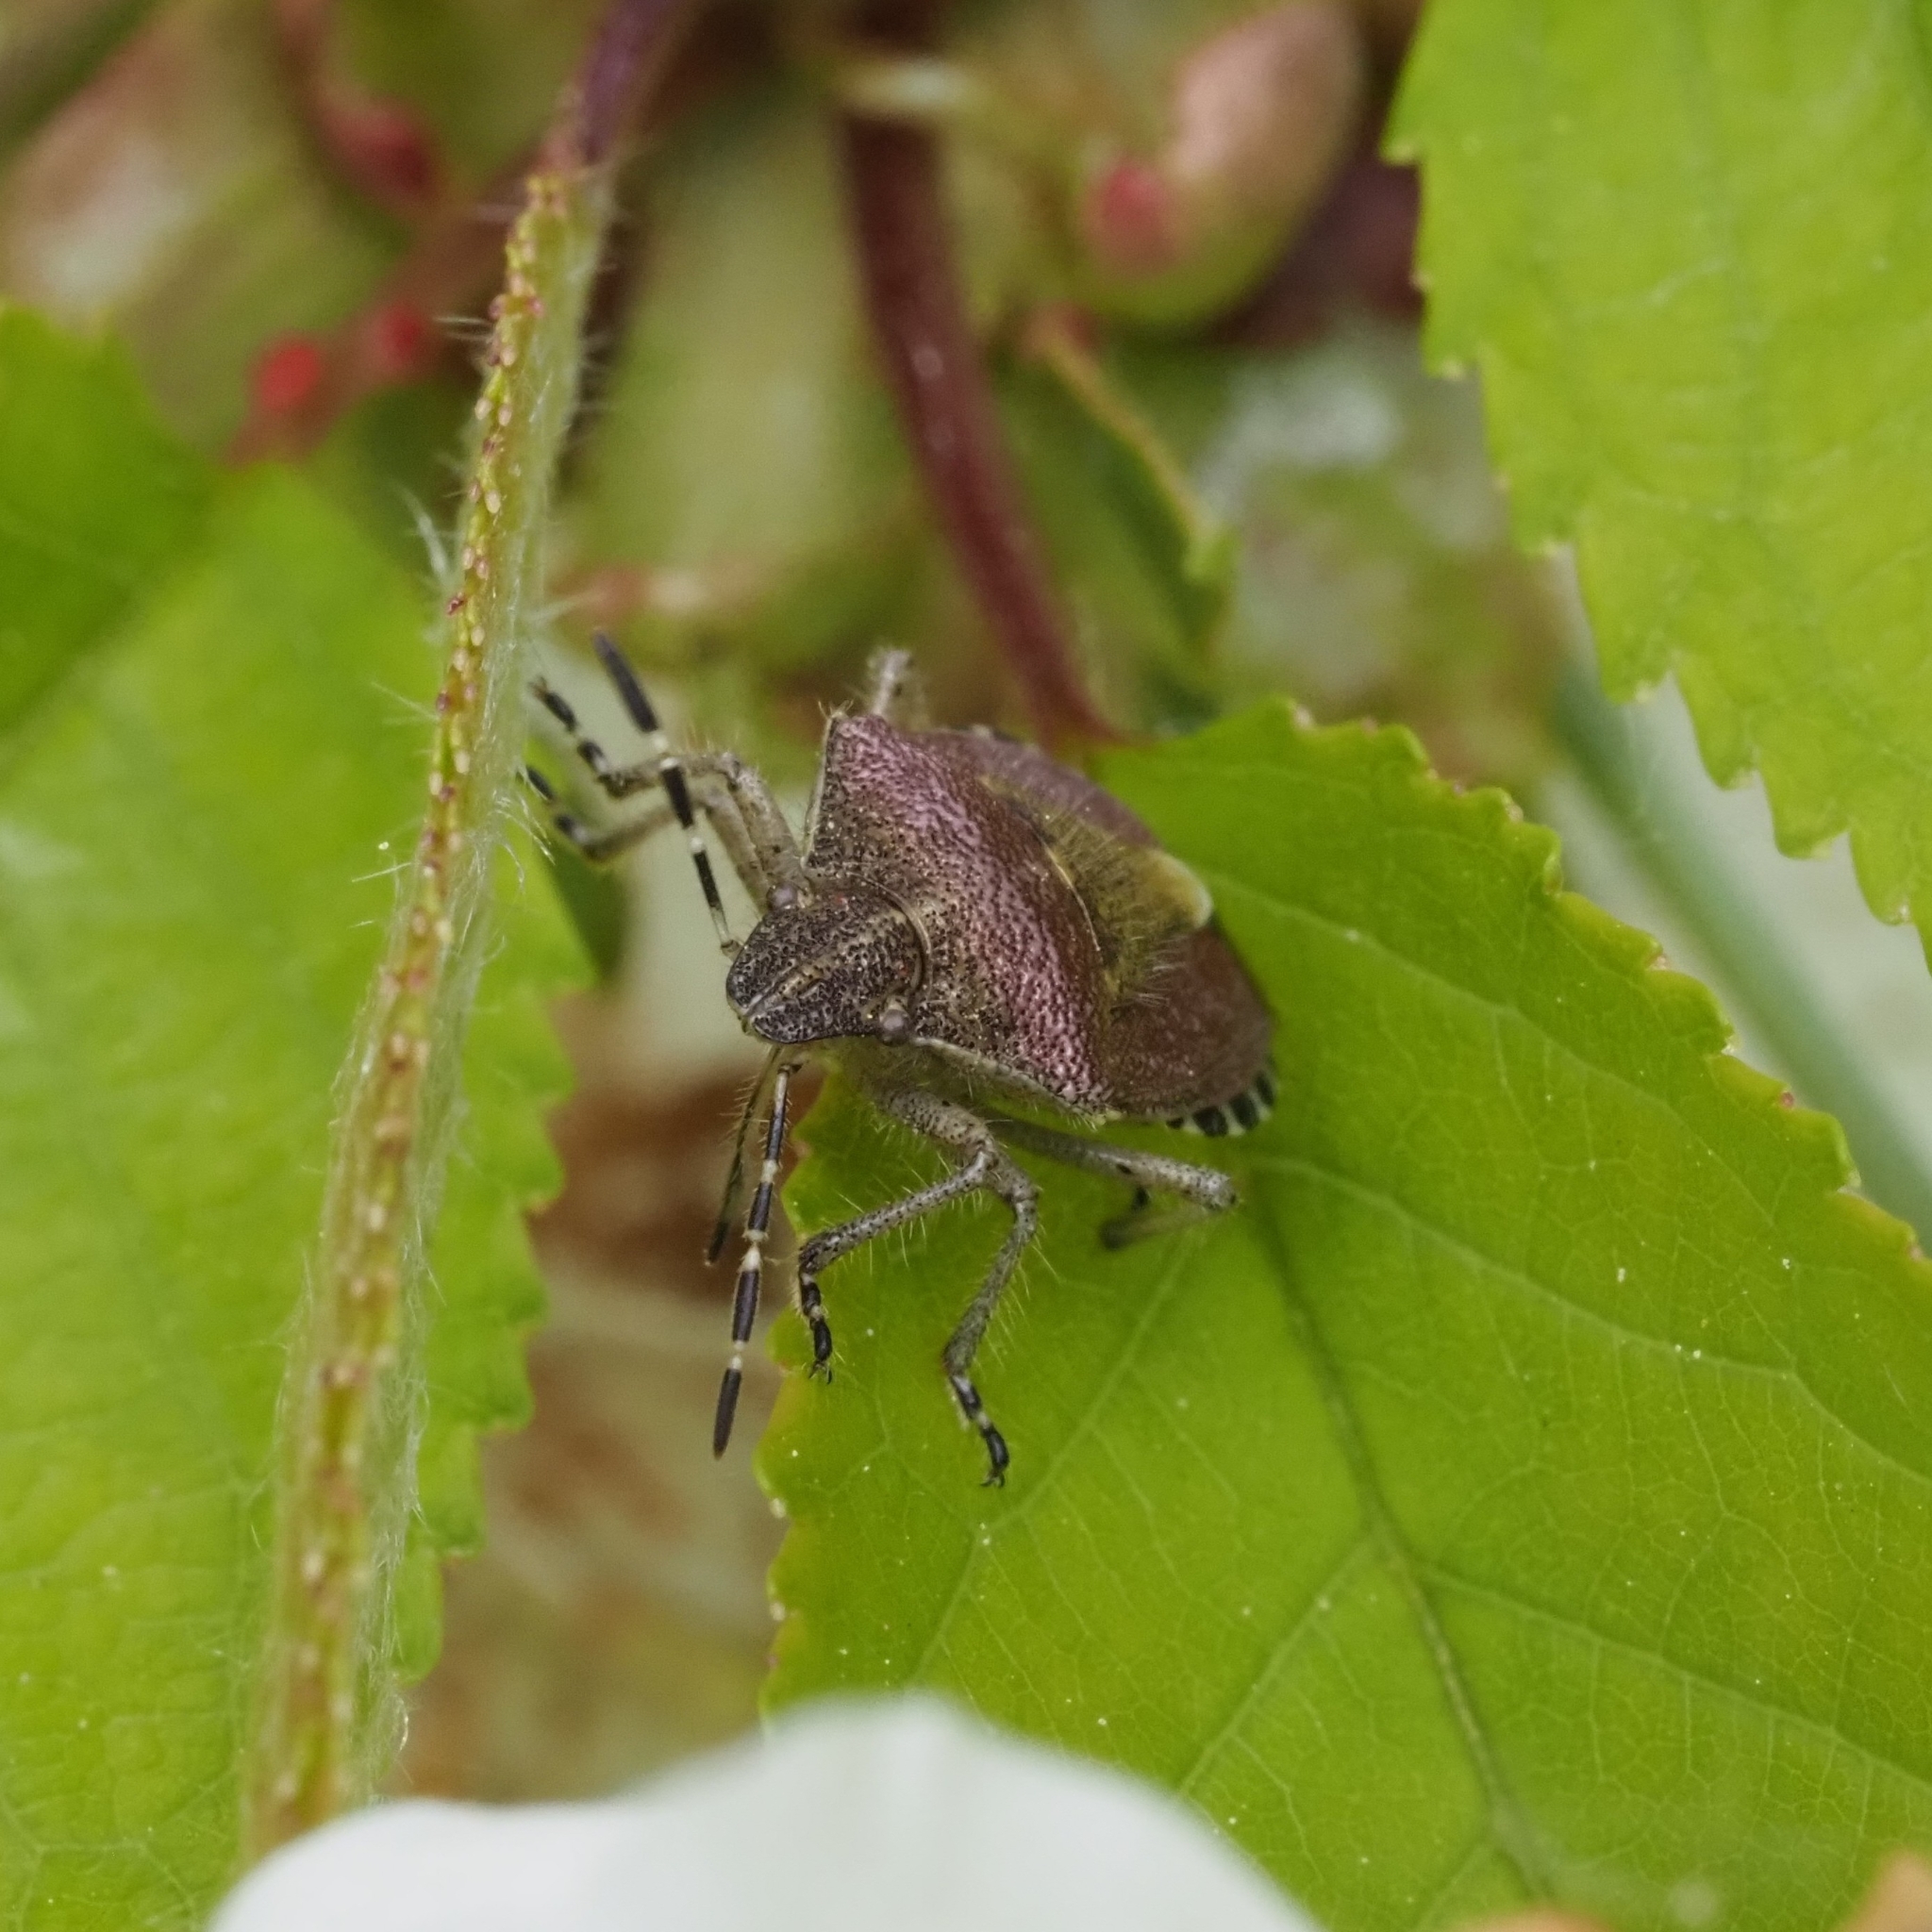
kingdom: Animalia
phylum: Arthropoda
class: Insecta
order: Hemiptera
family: Pentatomidae
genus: Dolycoris
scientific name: Dolycoris baccarum
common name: Sloe bug
